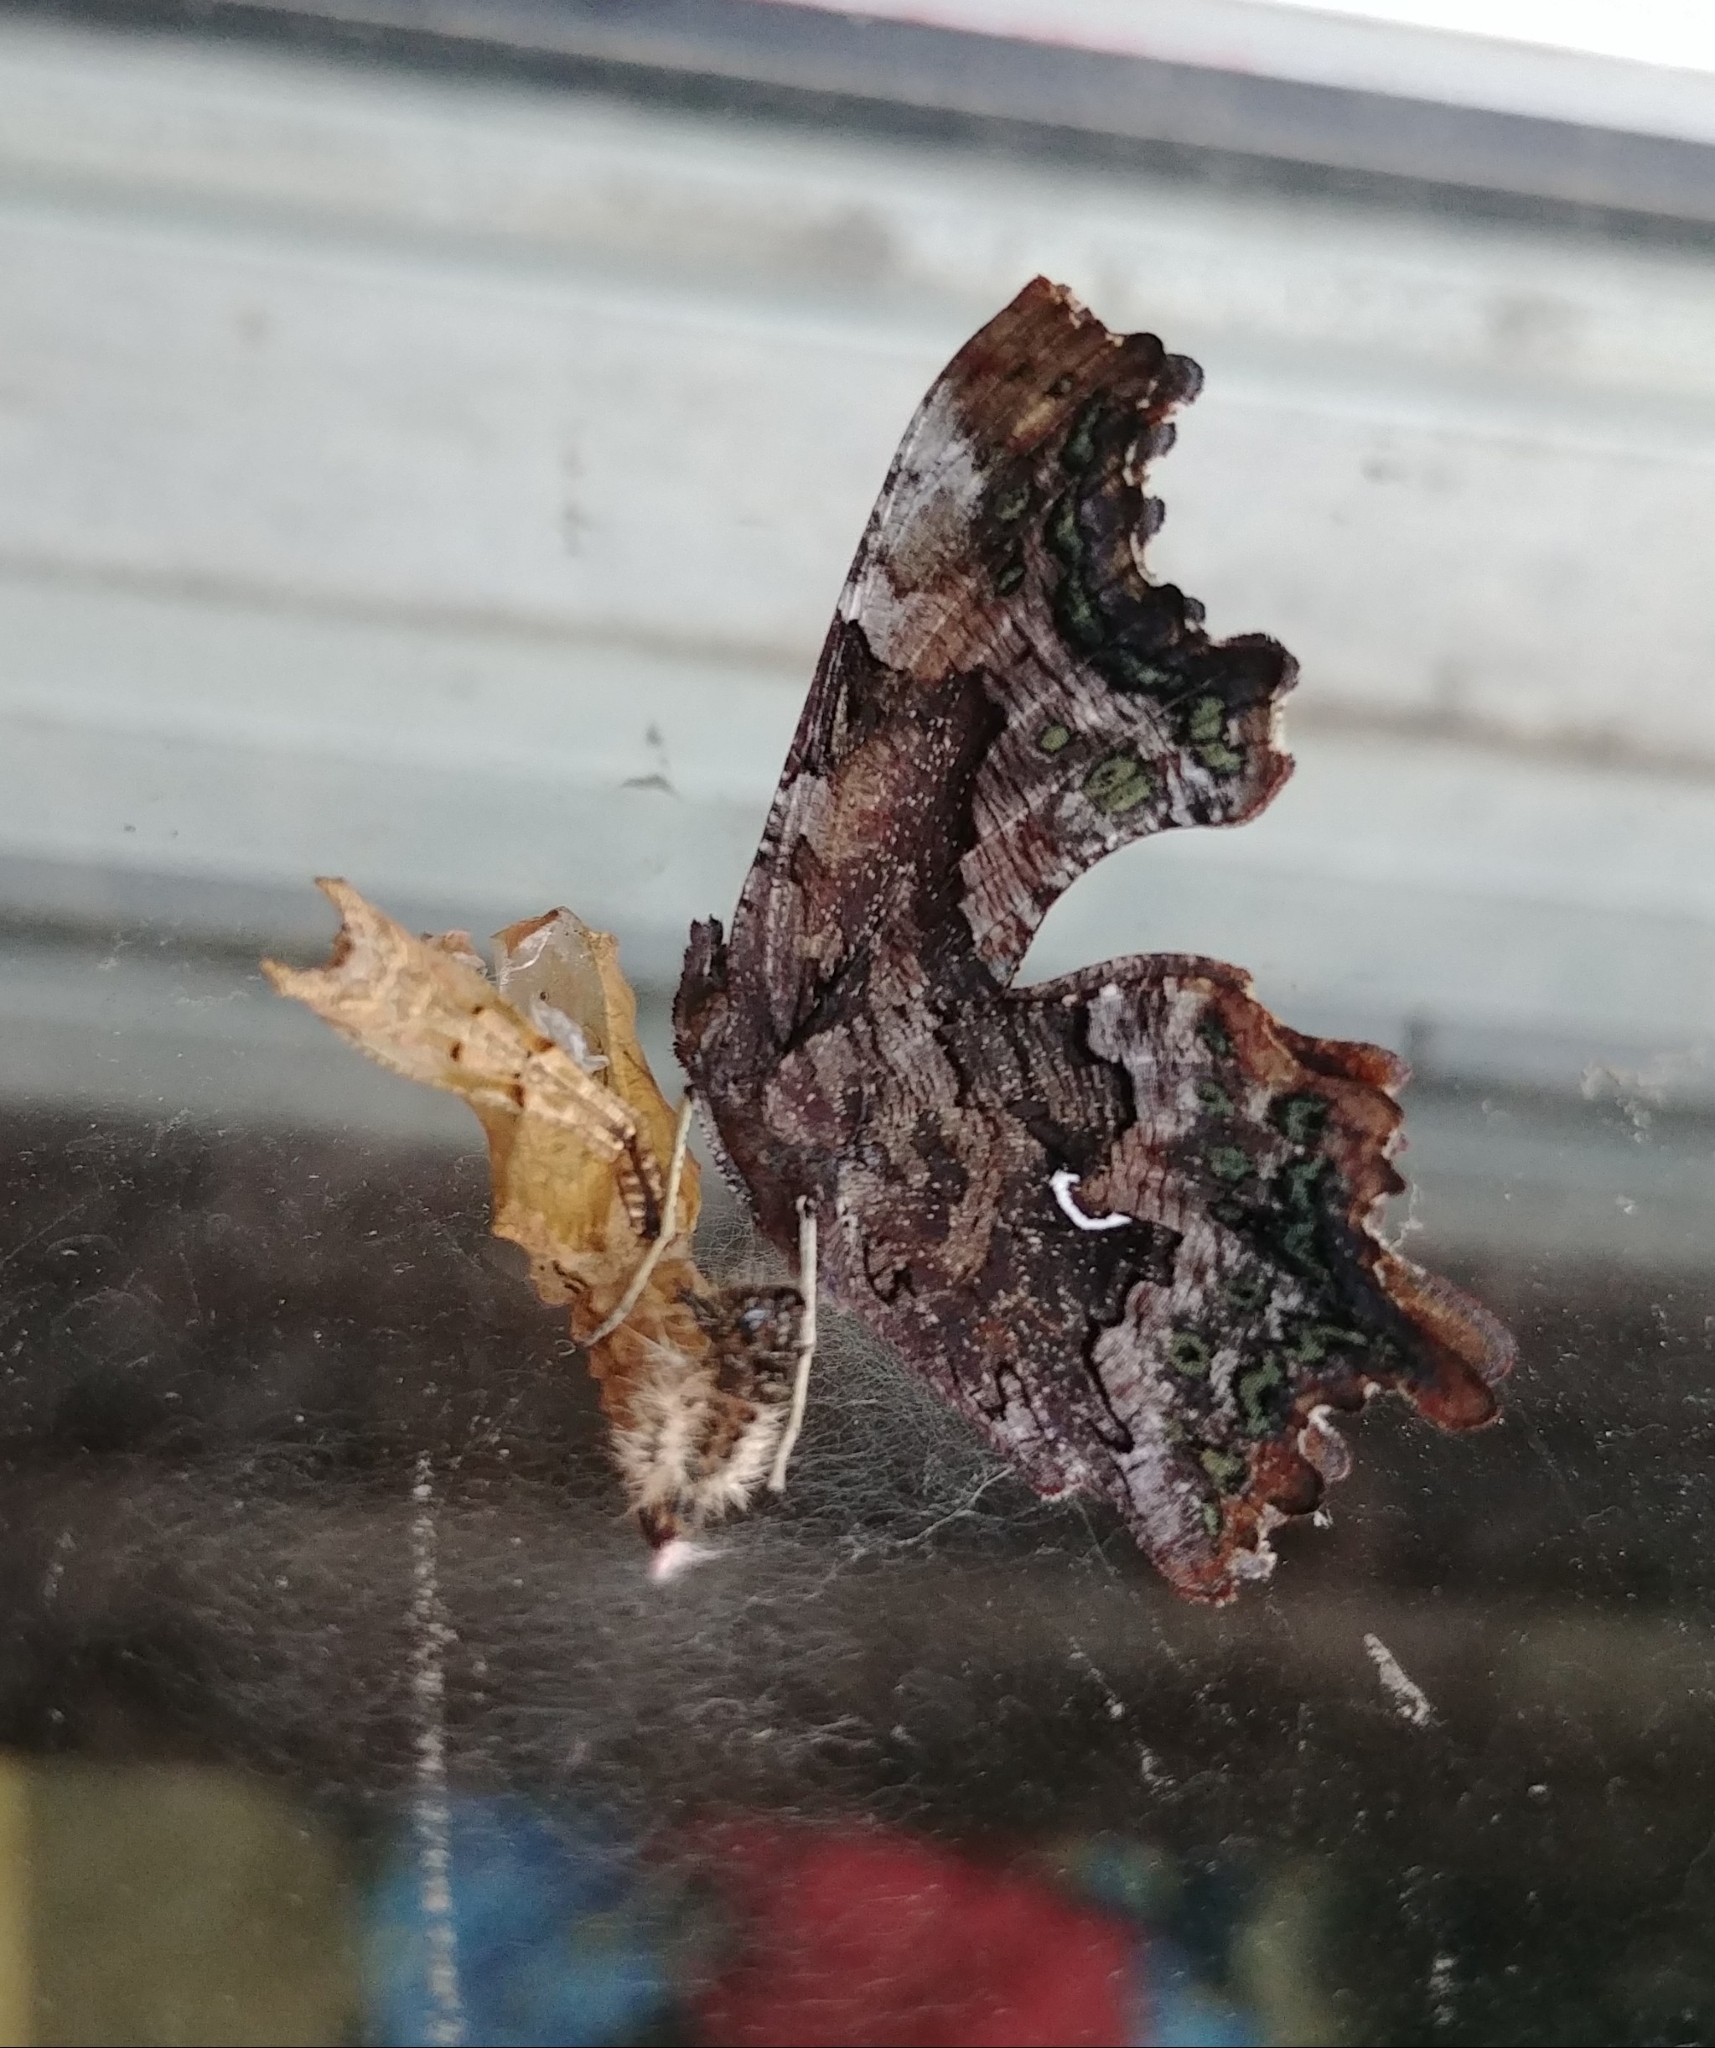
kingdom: Animalia
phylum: Arthropoda
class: Insecta
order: Lepidoptera
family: Nymphalidae
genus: Polygonia
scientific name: Polygonia faunus
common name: Green comma
